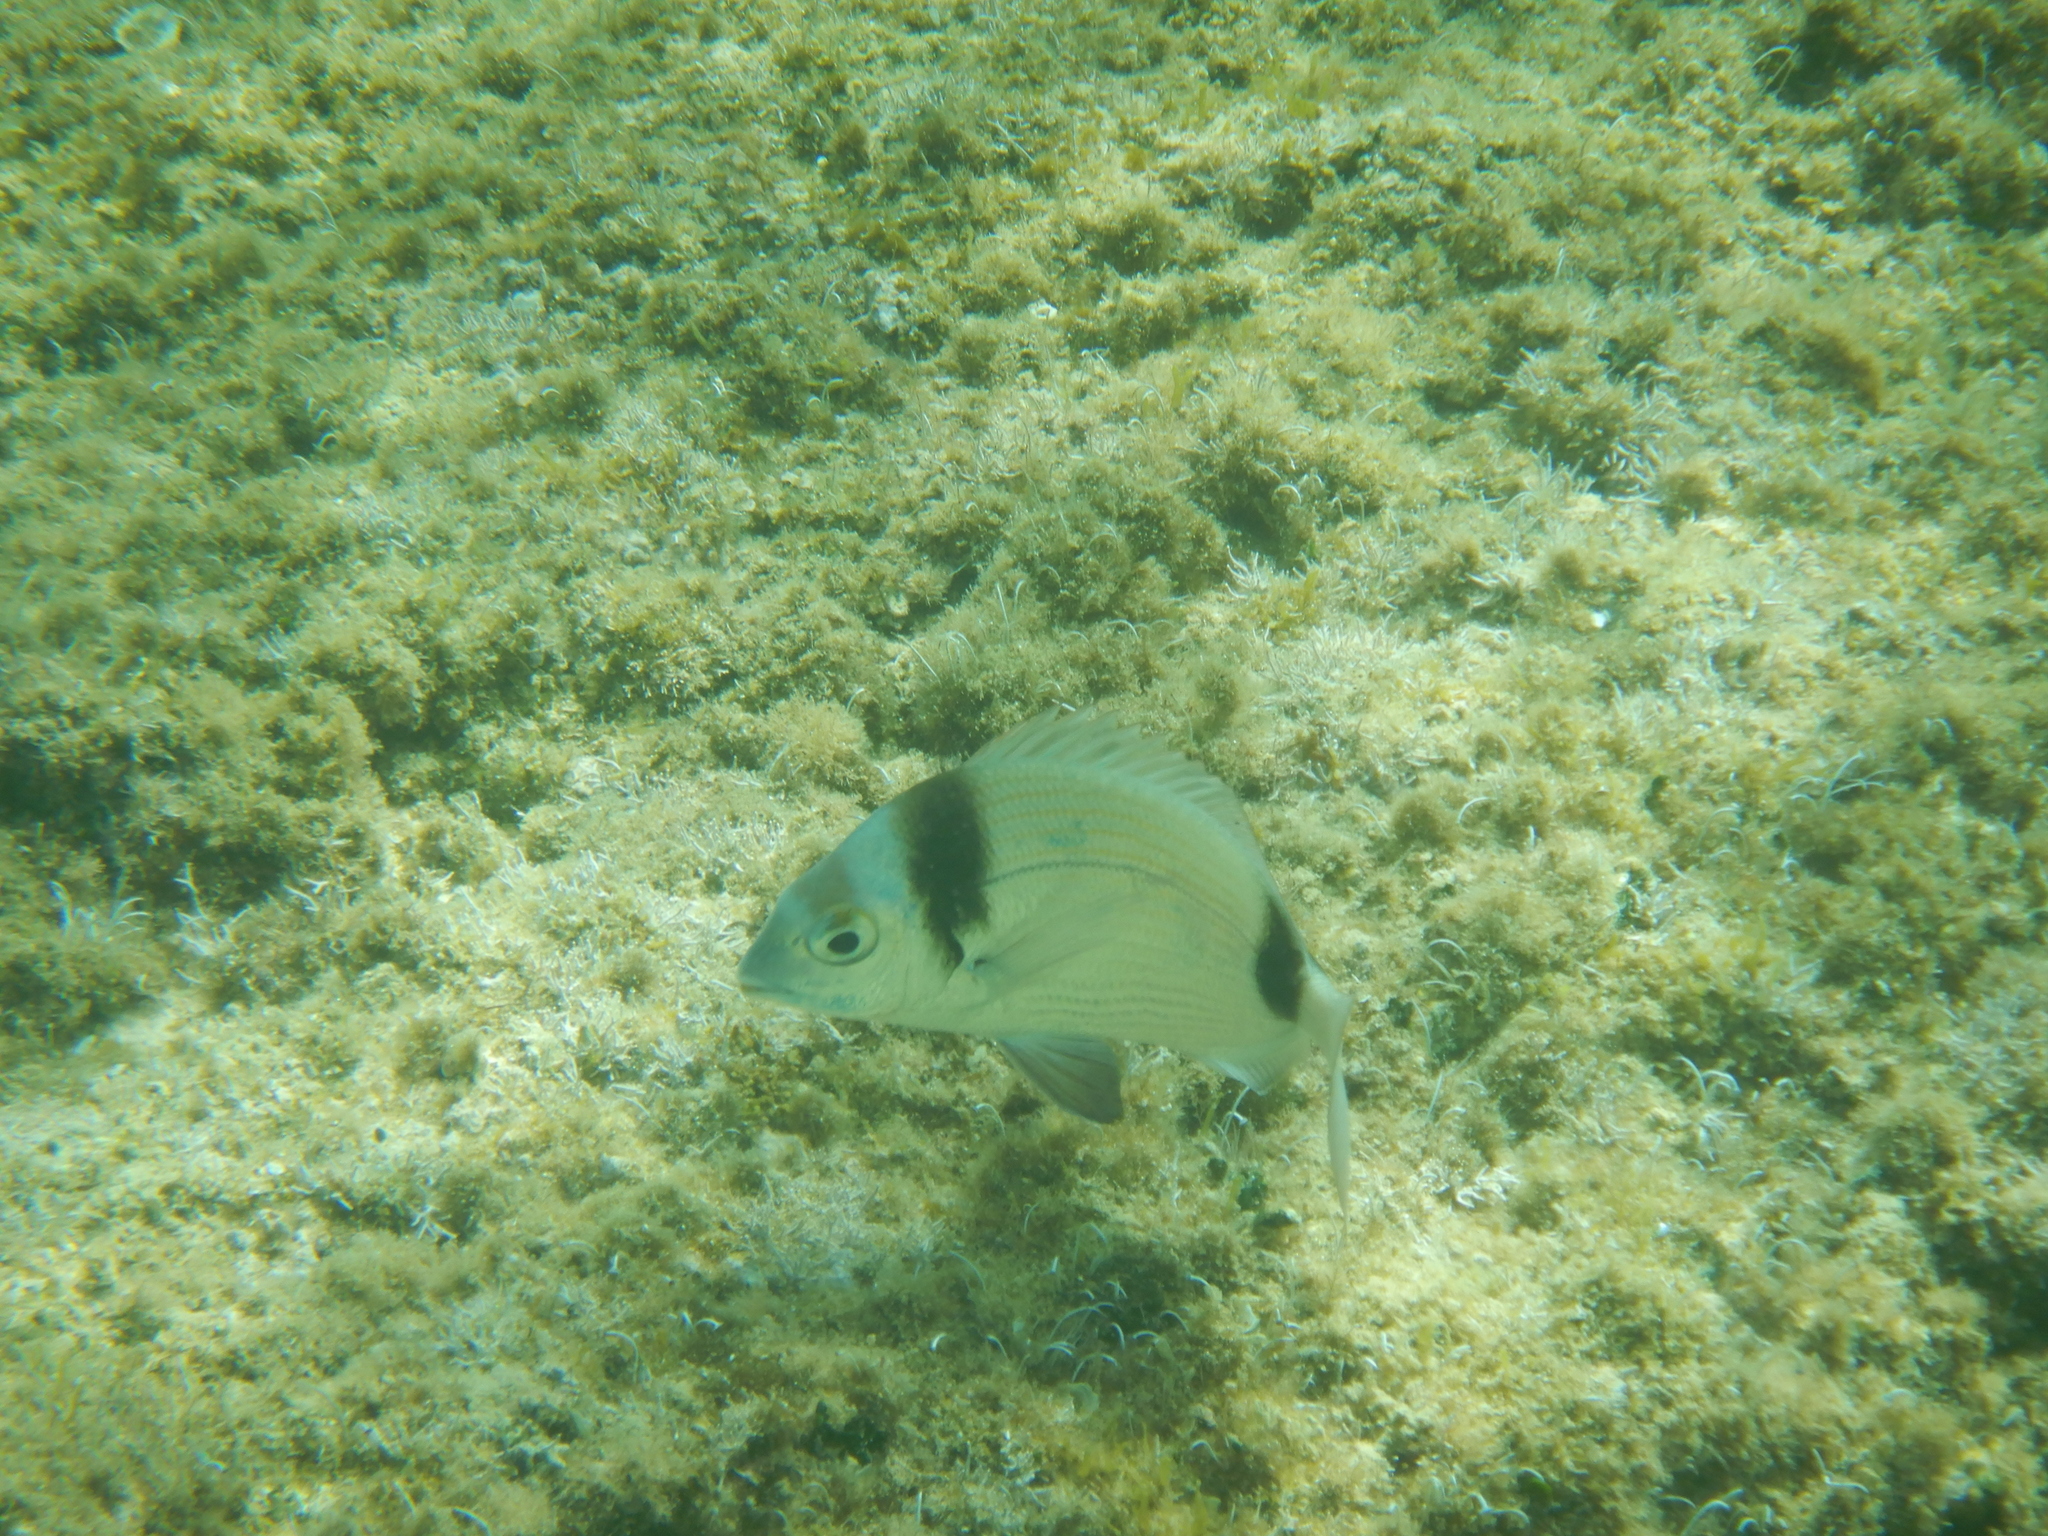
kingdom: Animalia
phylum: Chordata
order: Perciformes
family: Sparidae
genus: Diplodus
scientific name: Diplodus vulgaris
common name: Common two-banded seabream
